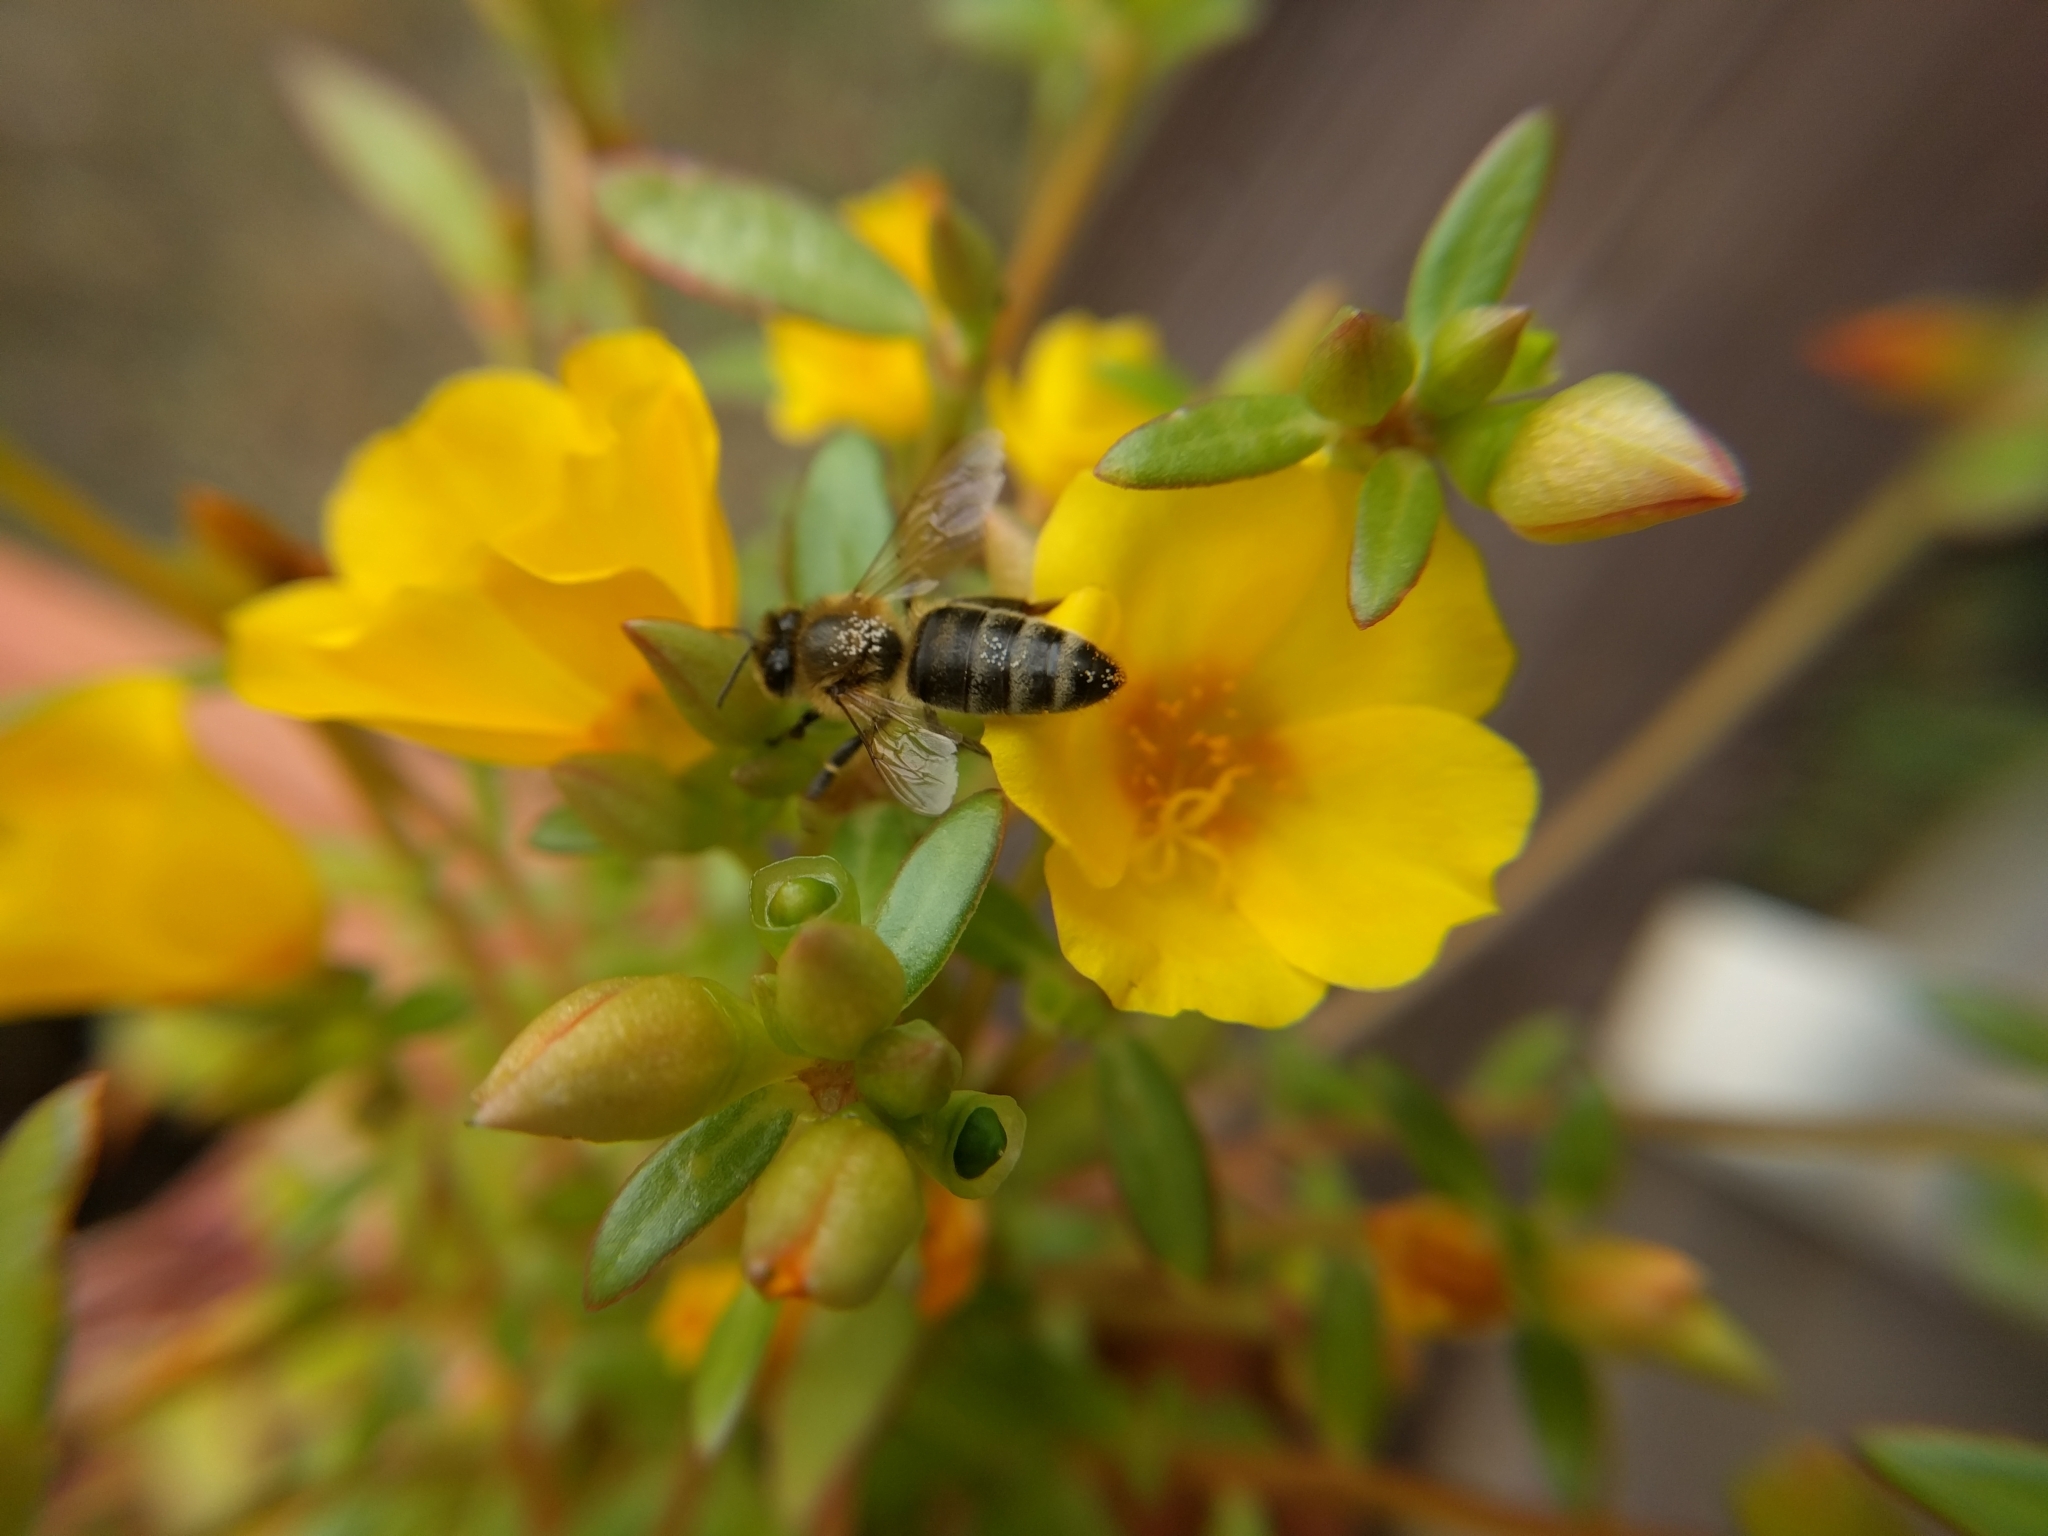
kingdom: Animalia
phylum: Arthropoda
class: Insecta
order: Hymenoptera
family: Apidae
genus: Apis
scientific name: Apis mellifera
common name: Honey bee
